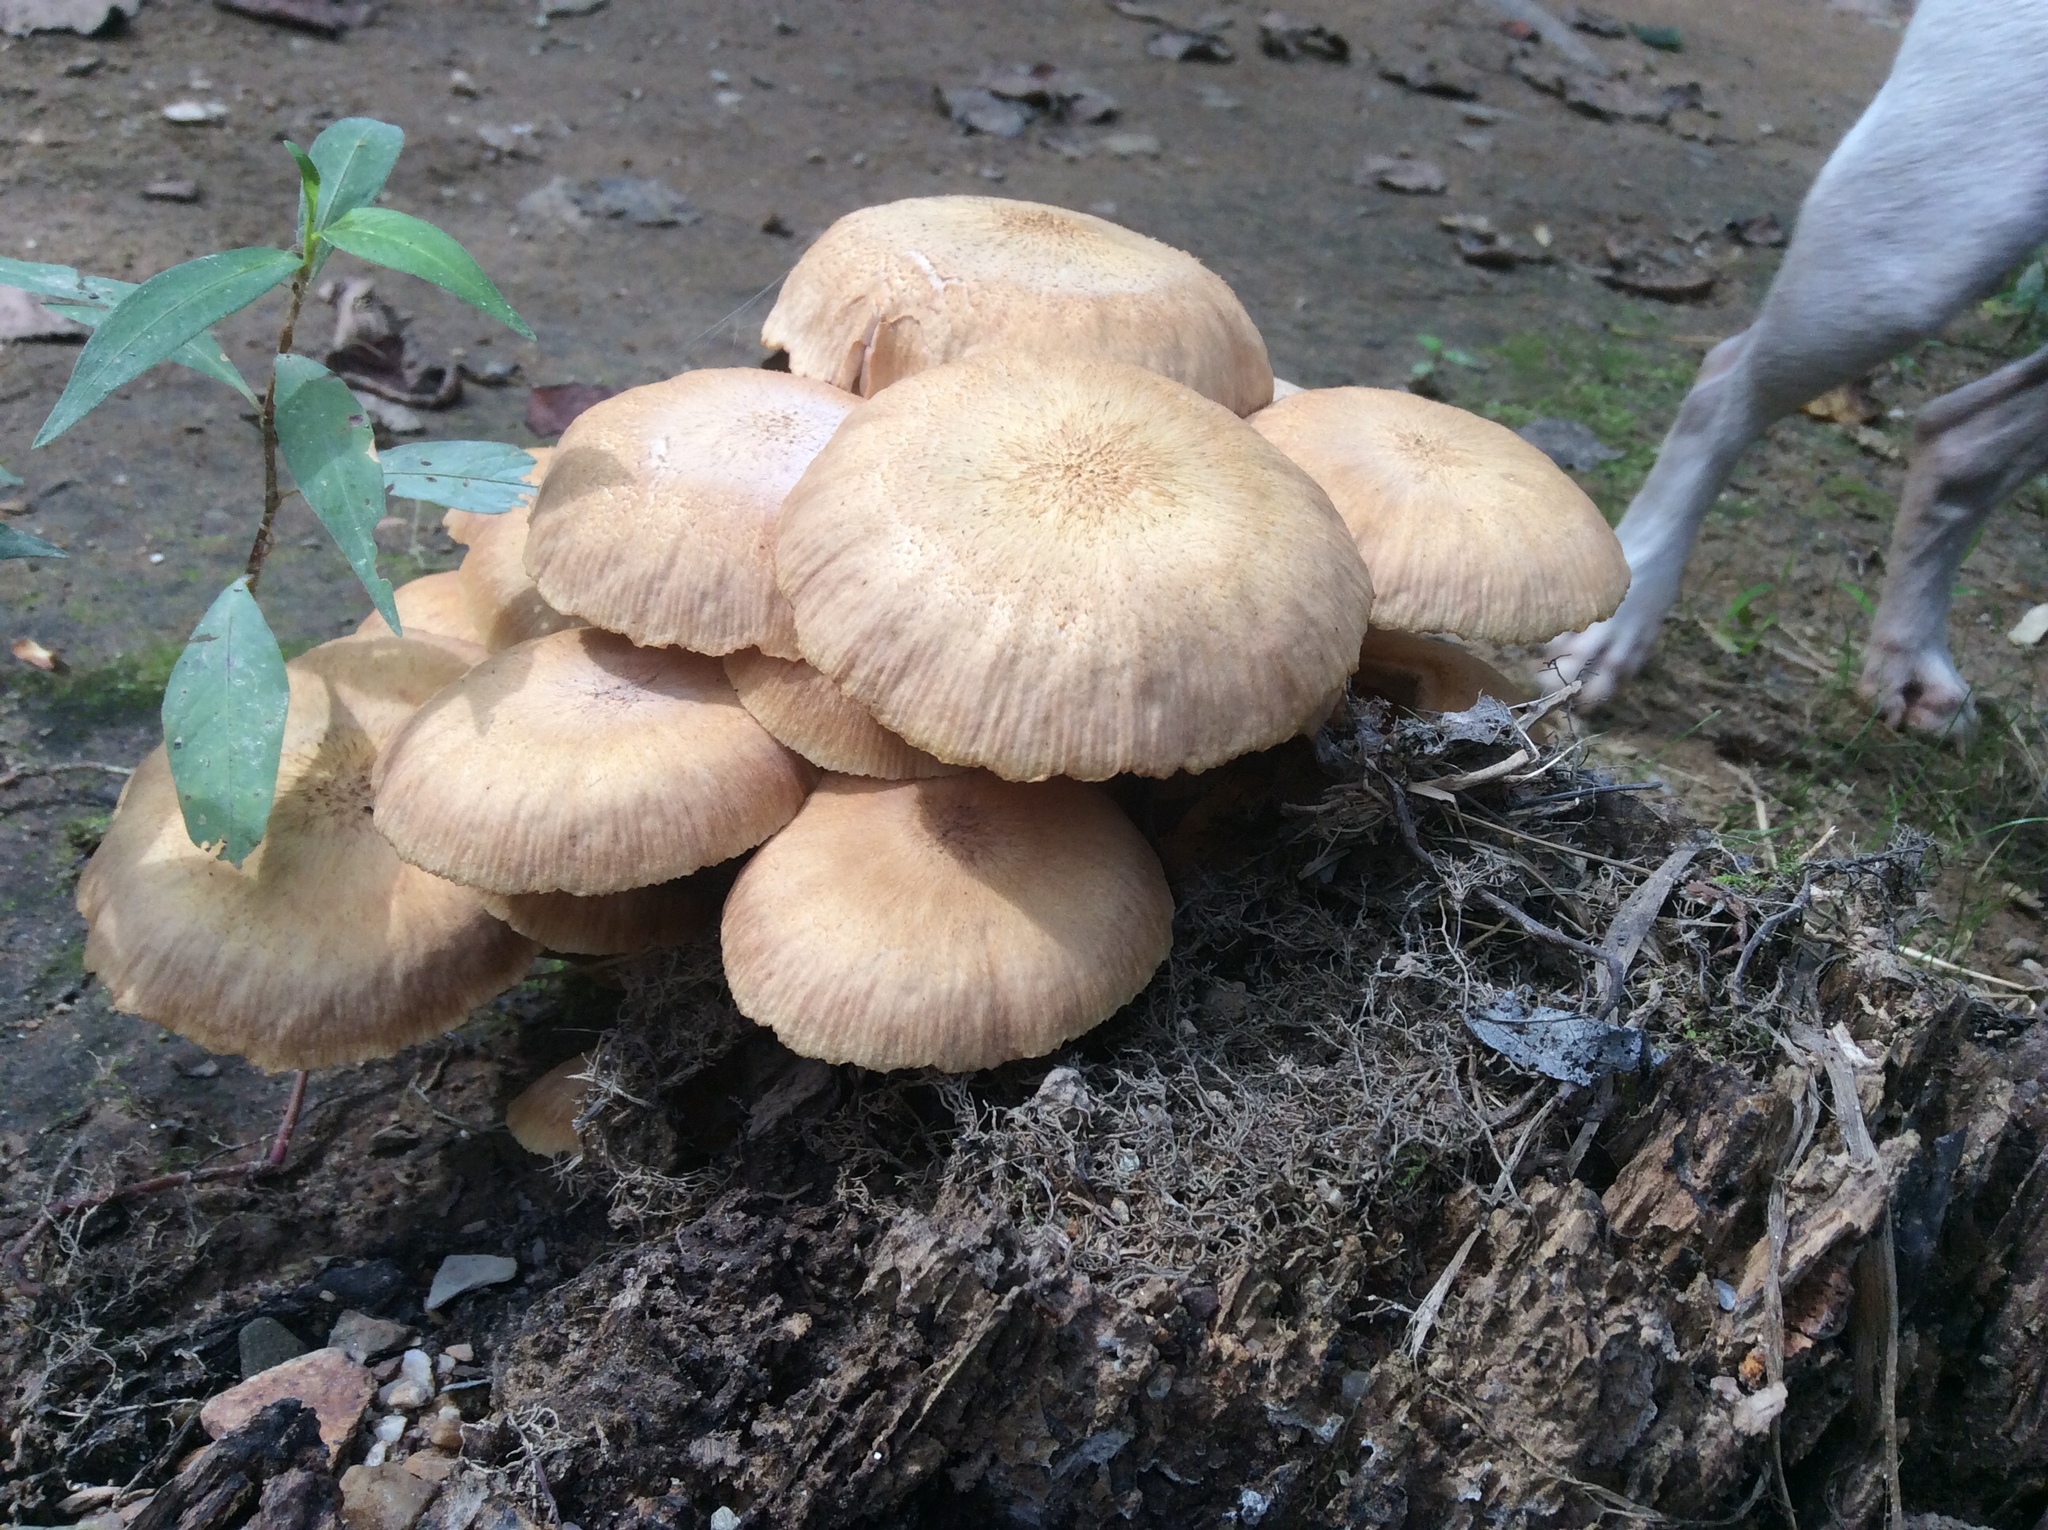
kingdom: Fungi
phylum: Basidiomycota
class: Agaricomycetes
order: Agaricales
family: Physalacriaceae
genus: Desarmillaria
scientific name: Desarmillaria caespitosa
